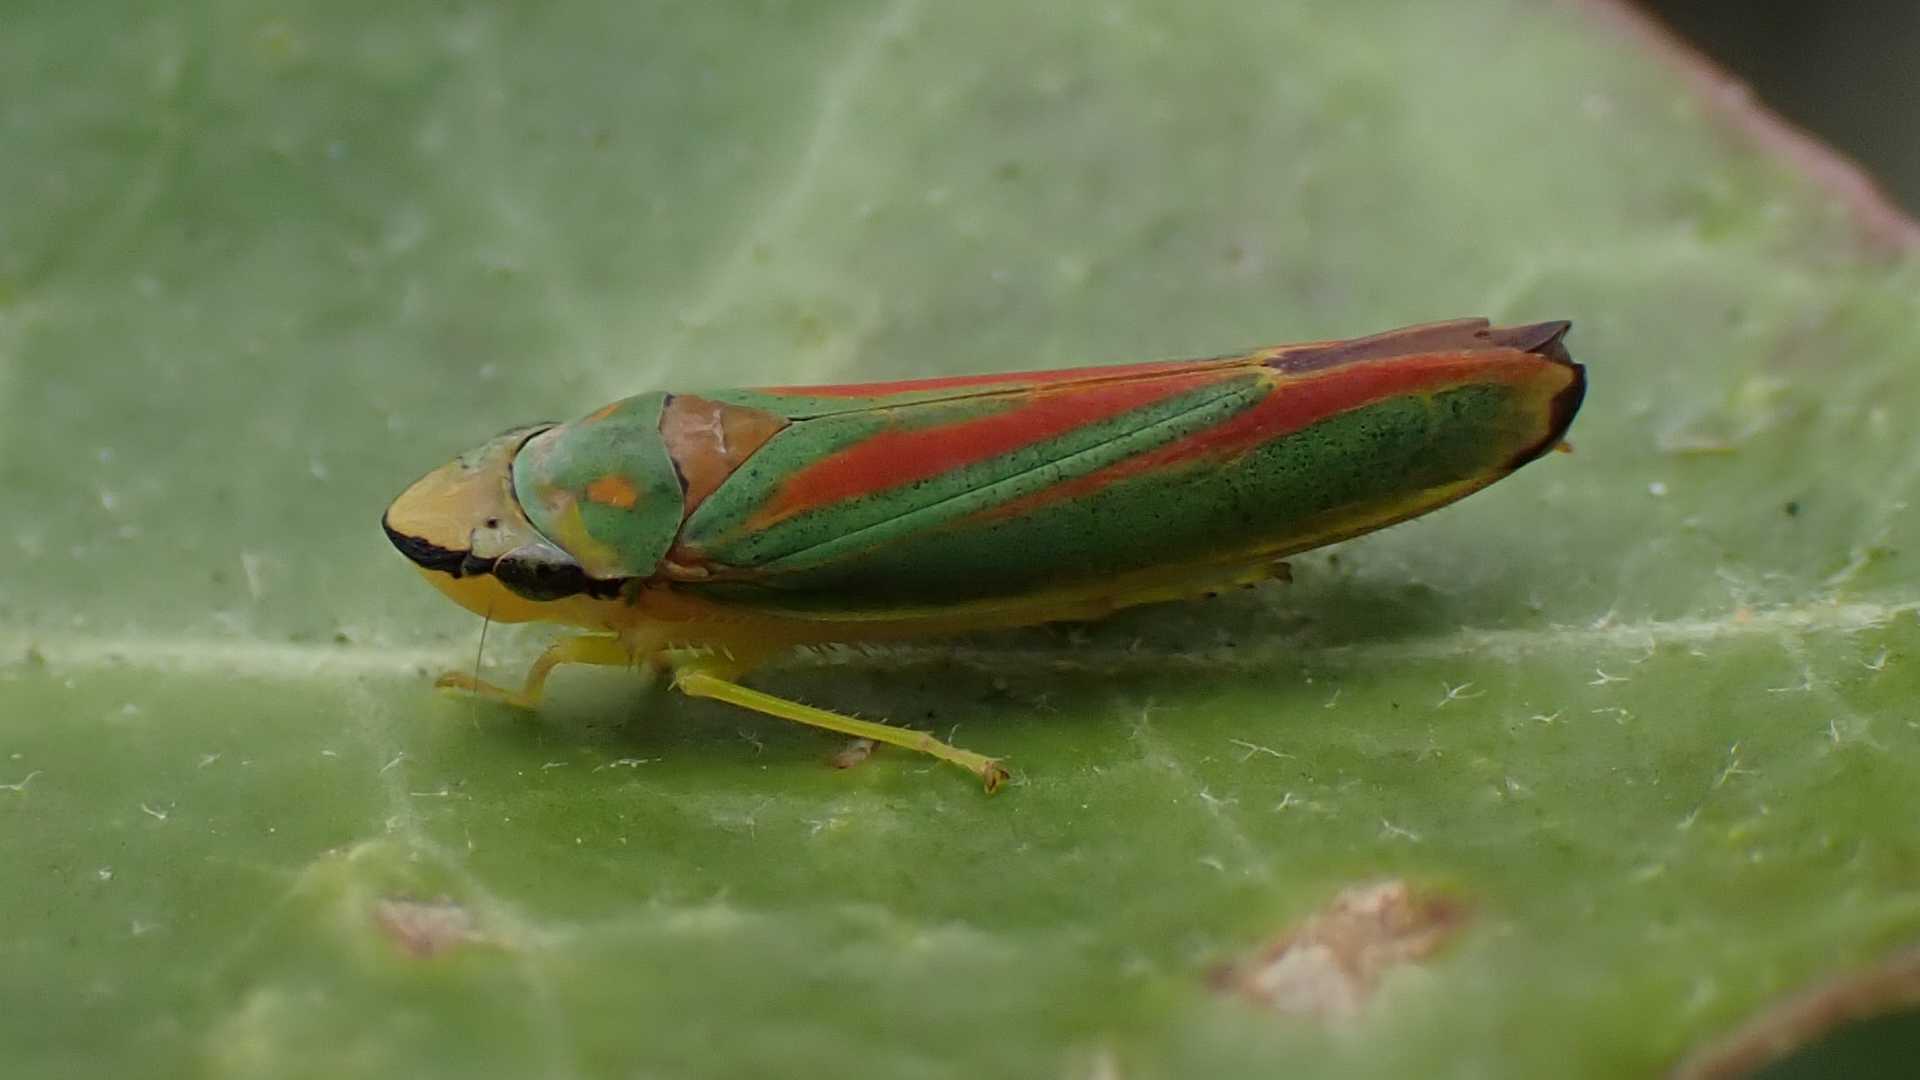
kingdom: Animalia
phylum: Arthropoda
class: Insecta
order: Hemiptera
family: Cicadellidae
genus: Graphocephala
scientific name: Graphocephala fennahi
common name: Rhododendron leafhopper
